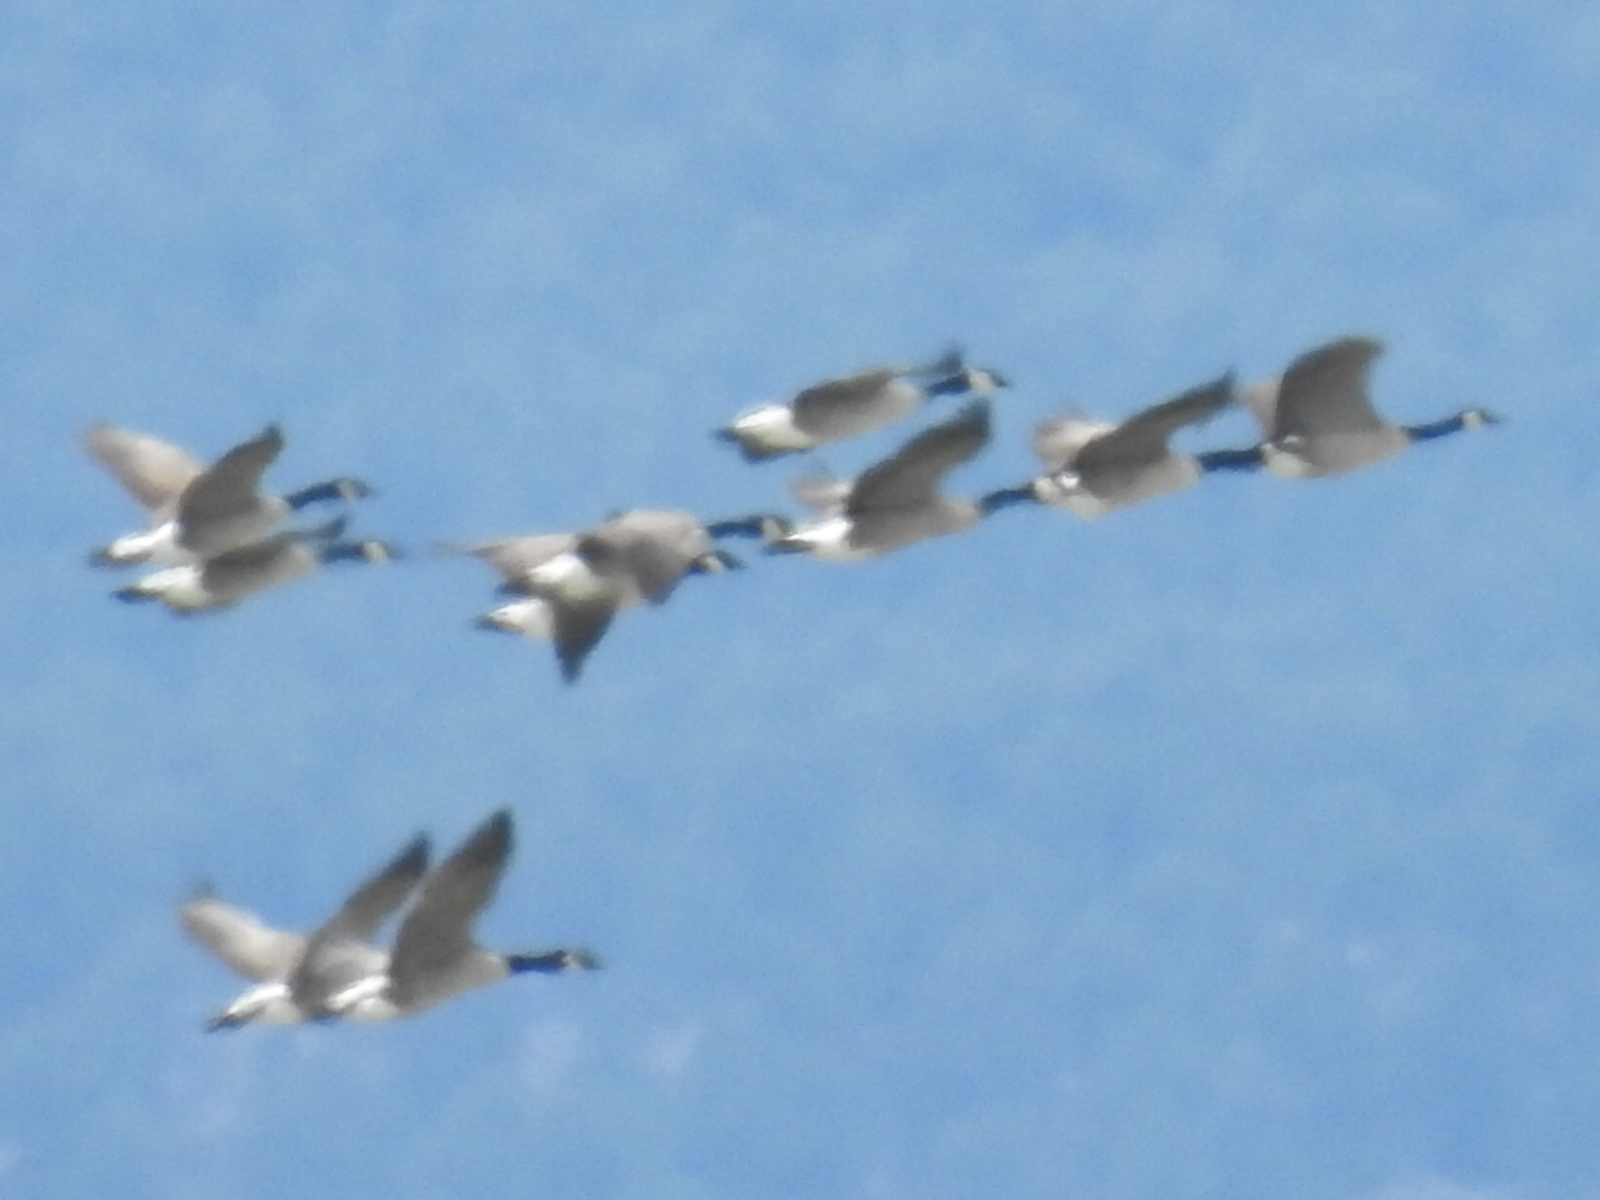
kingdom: Animalia
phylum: Chordata
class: Aves
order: Anseriformes
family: Anatidae
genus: Branta
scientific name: Branta canadensis
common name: Canada goose
